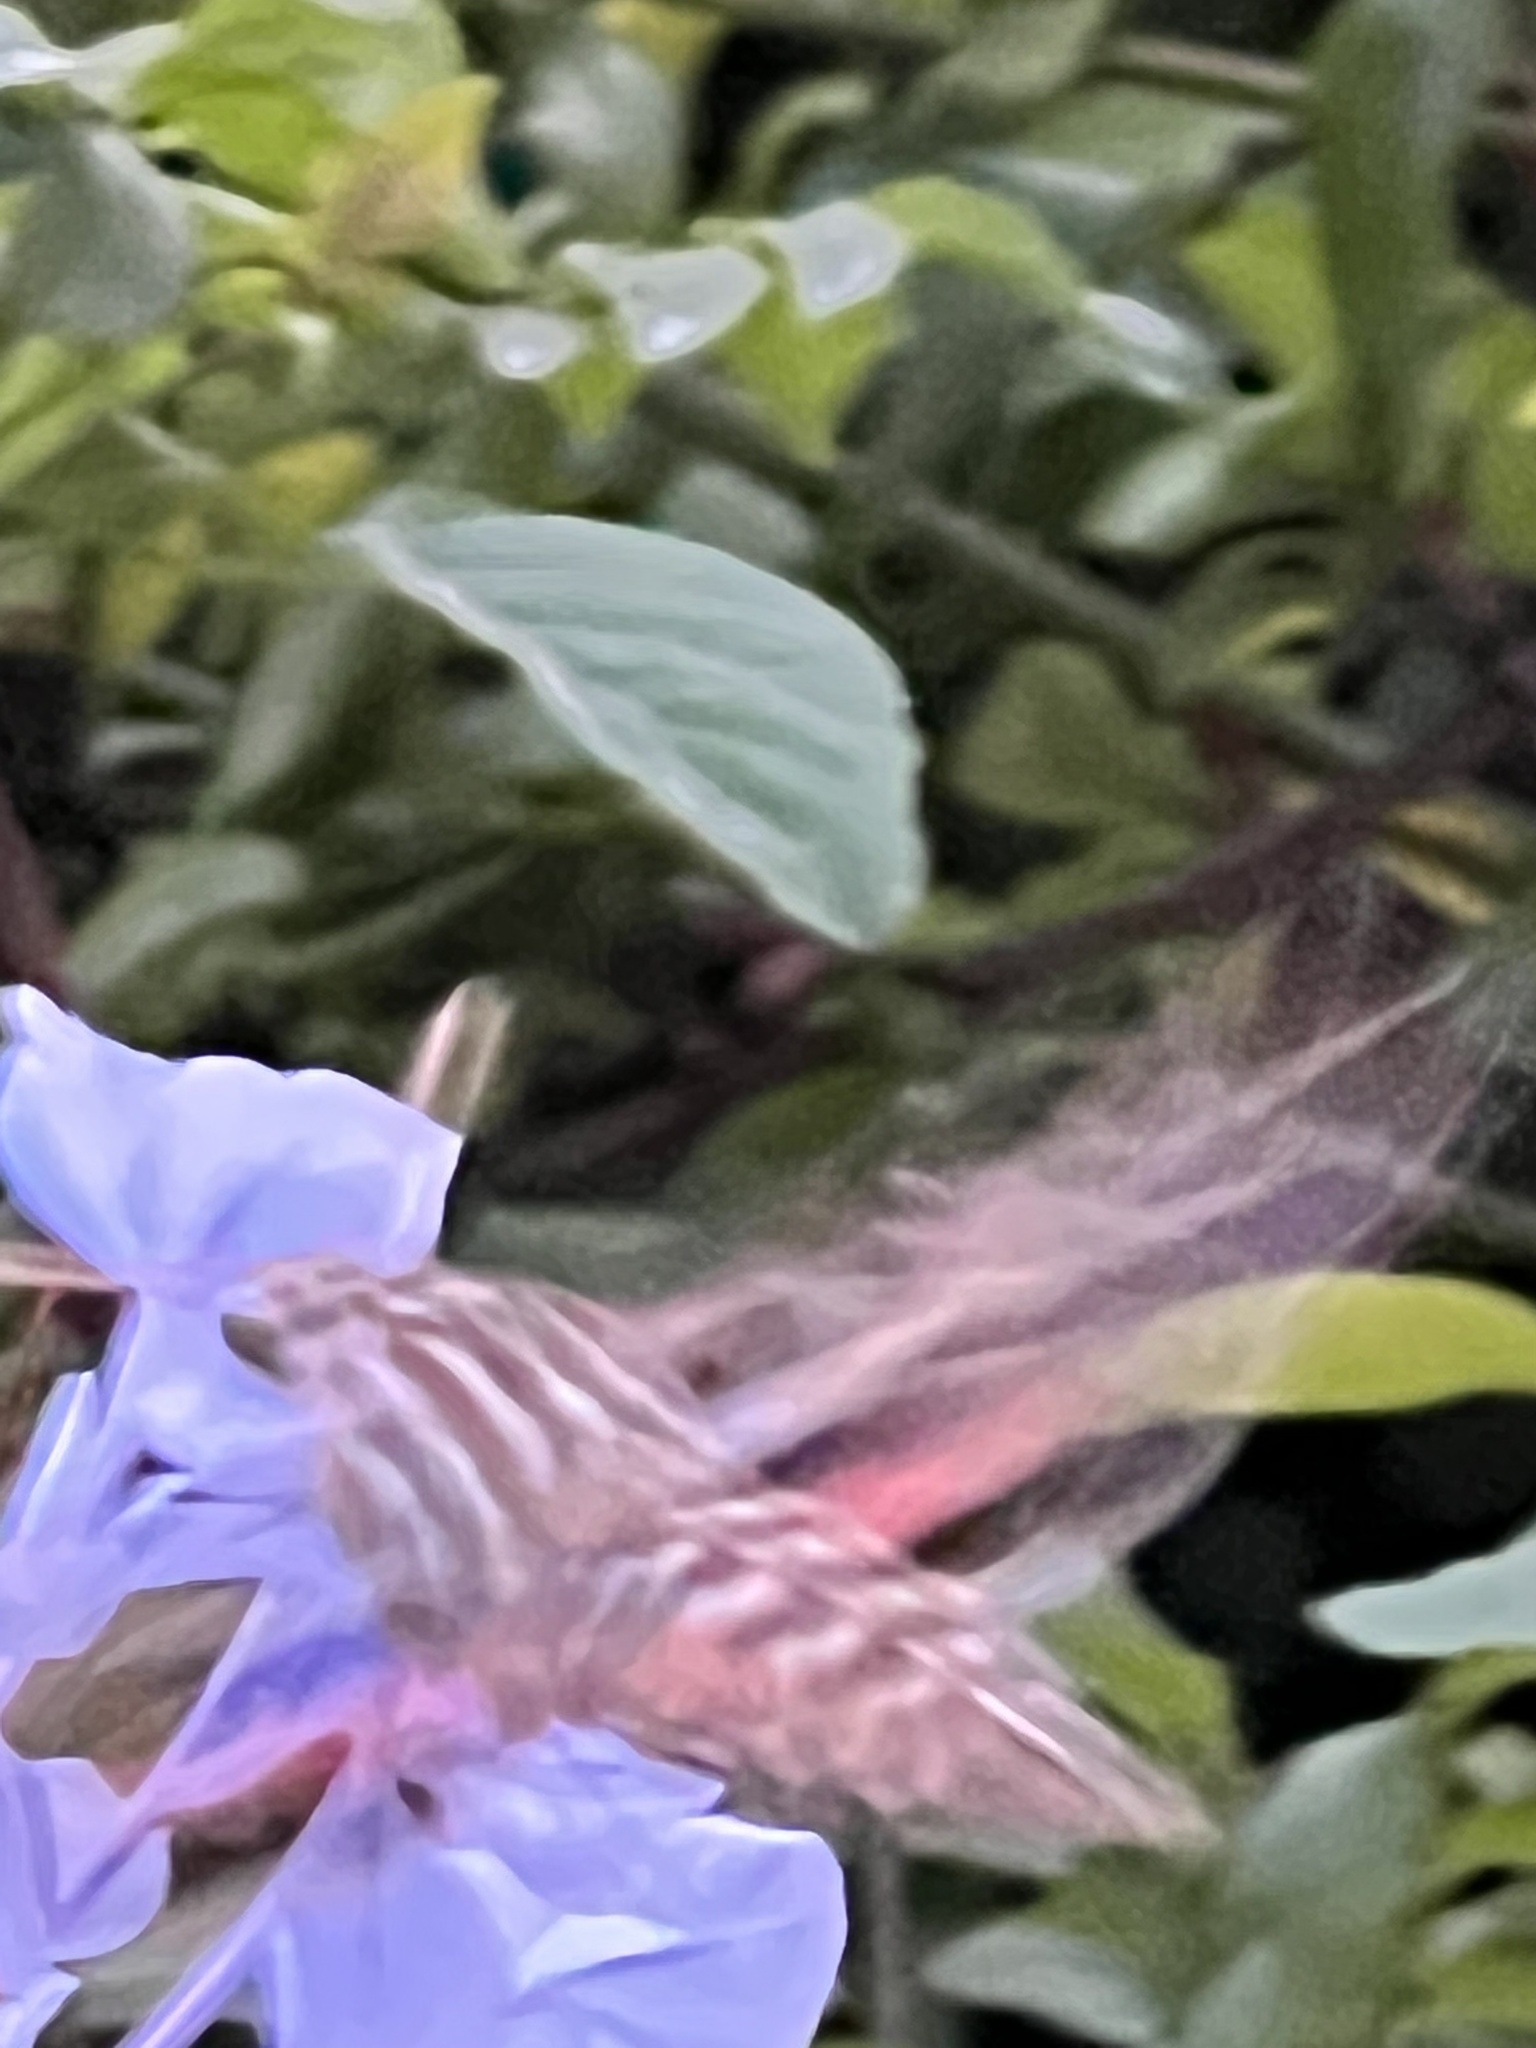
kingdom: Animalia
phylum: Arthropoda
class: Insecta
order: Lepidoptera
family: Sphingidae
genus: Hyles
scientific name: Hyles lineata
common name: White-lined sphinx
